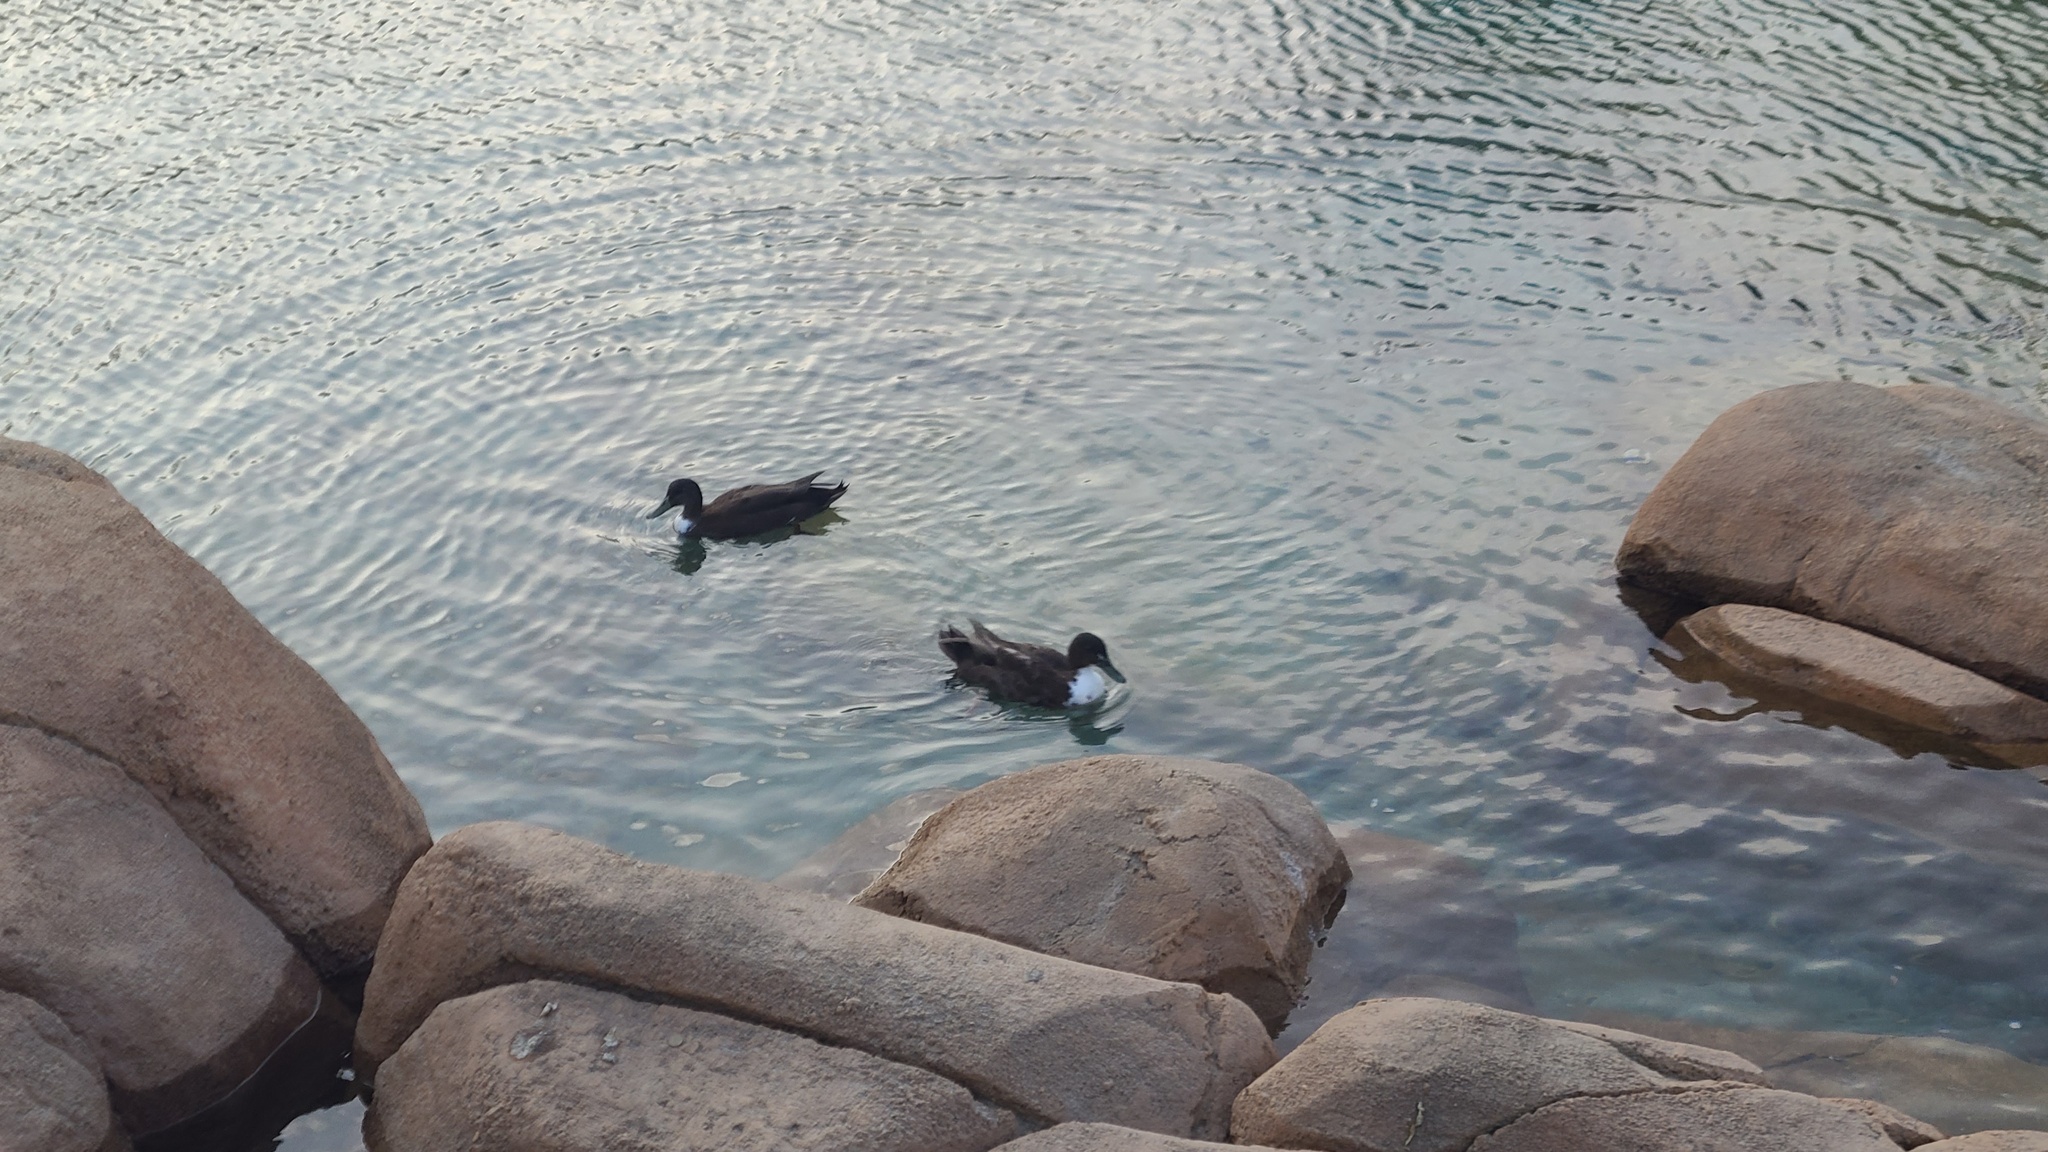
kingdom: Animalia
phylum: Chordata
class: Aves
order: Anseriformes
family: Anatidae
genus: Anas
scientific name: Anas platyrhynchos
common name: Mallard
